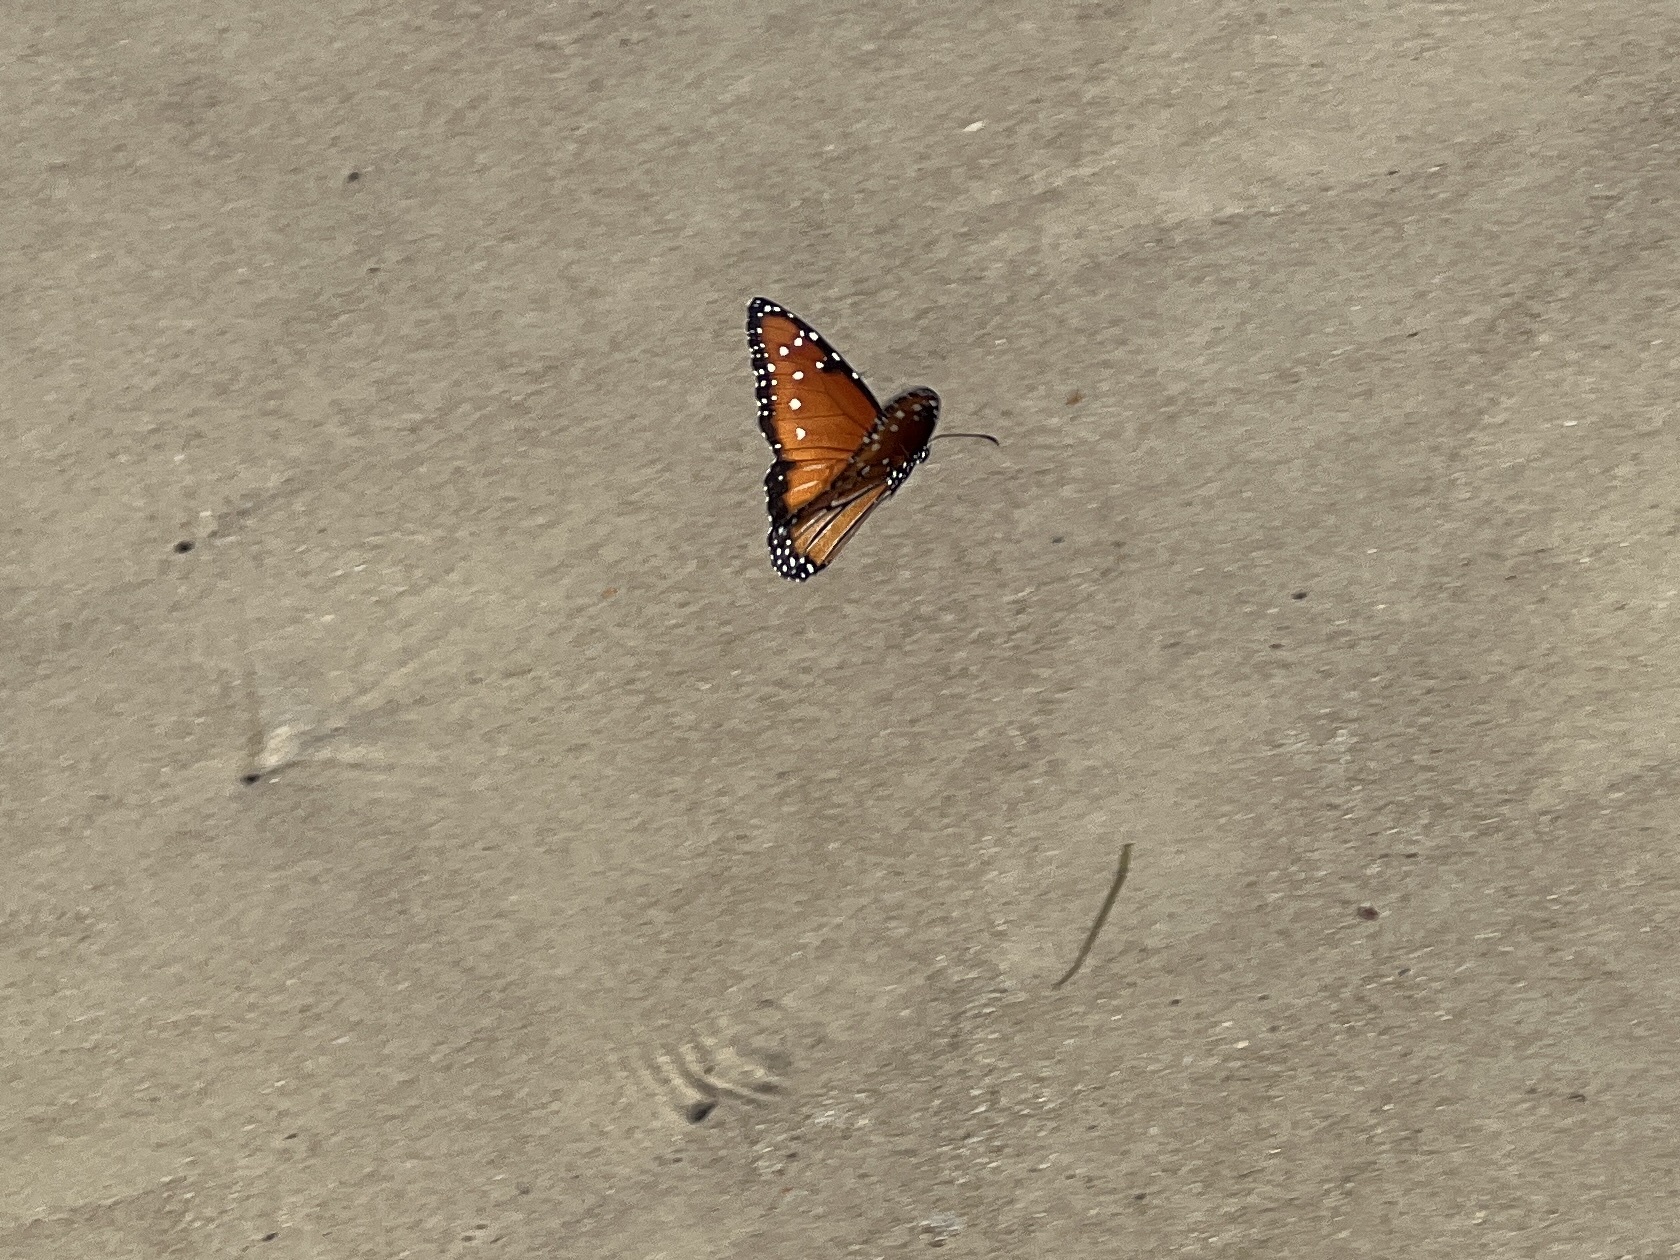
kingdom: Animalia
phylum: Arthropoda
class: Insecta
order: Lepidoptera
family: Nymphalidae
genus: Danaus
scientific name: Danaus gilippus
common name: Queen
